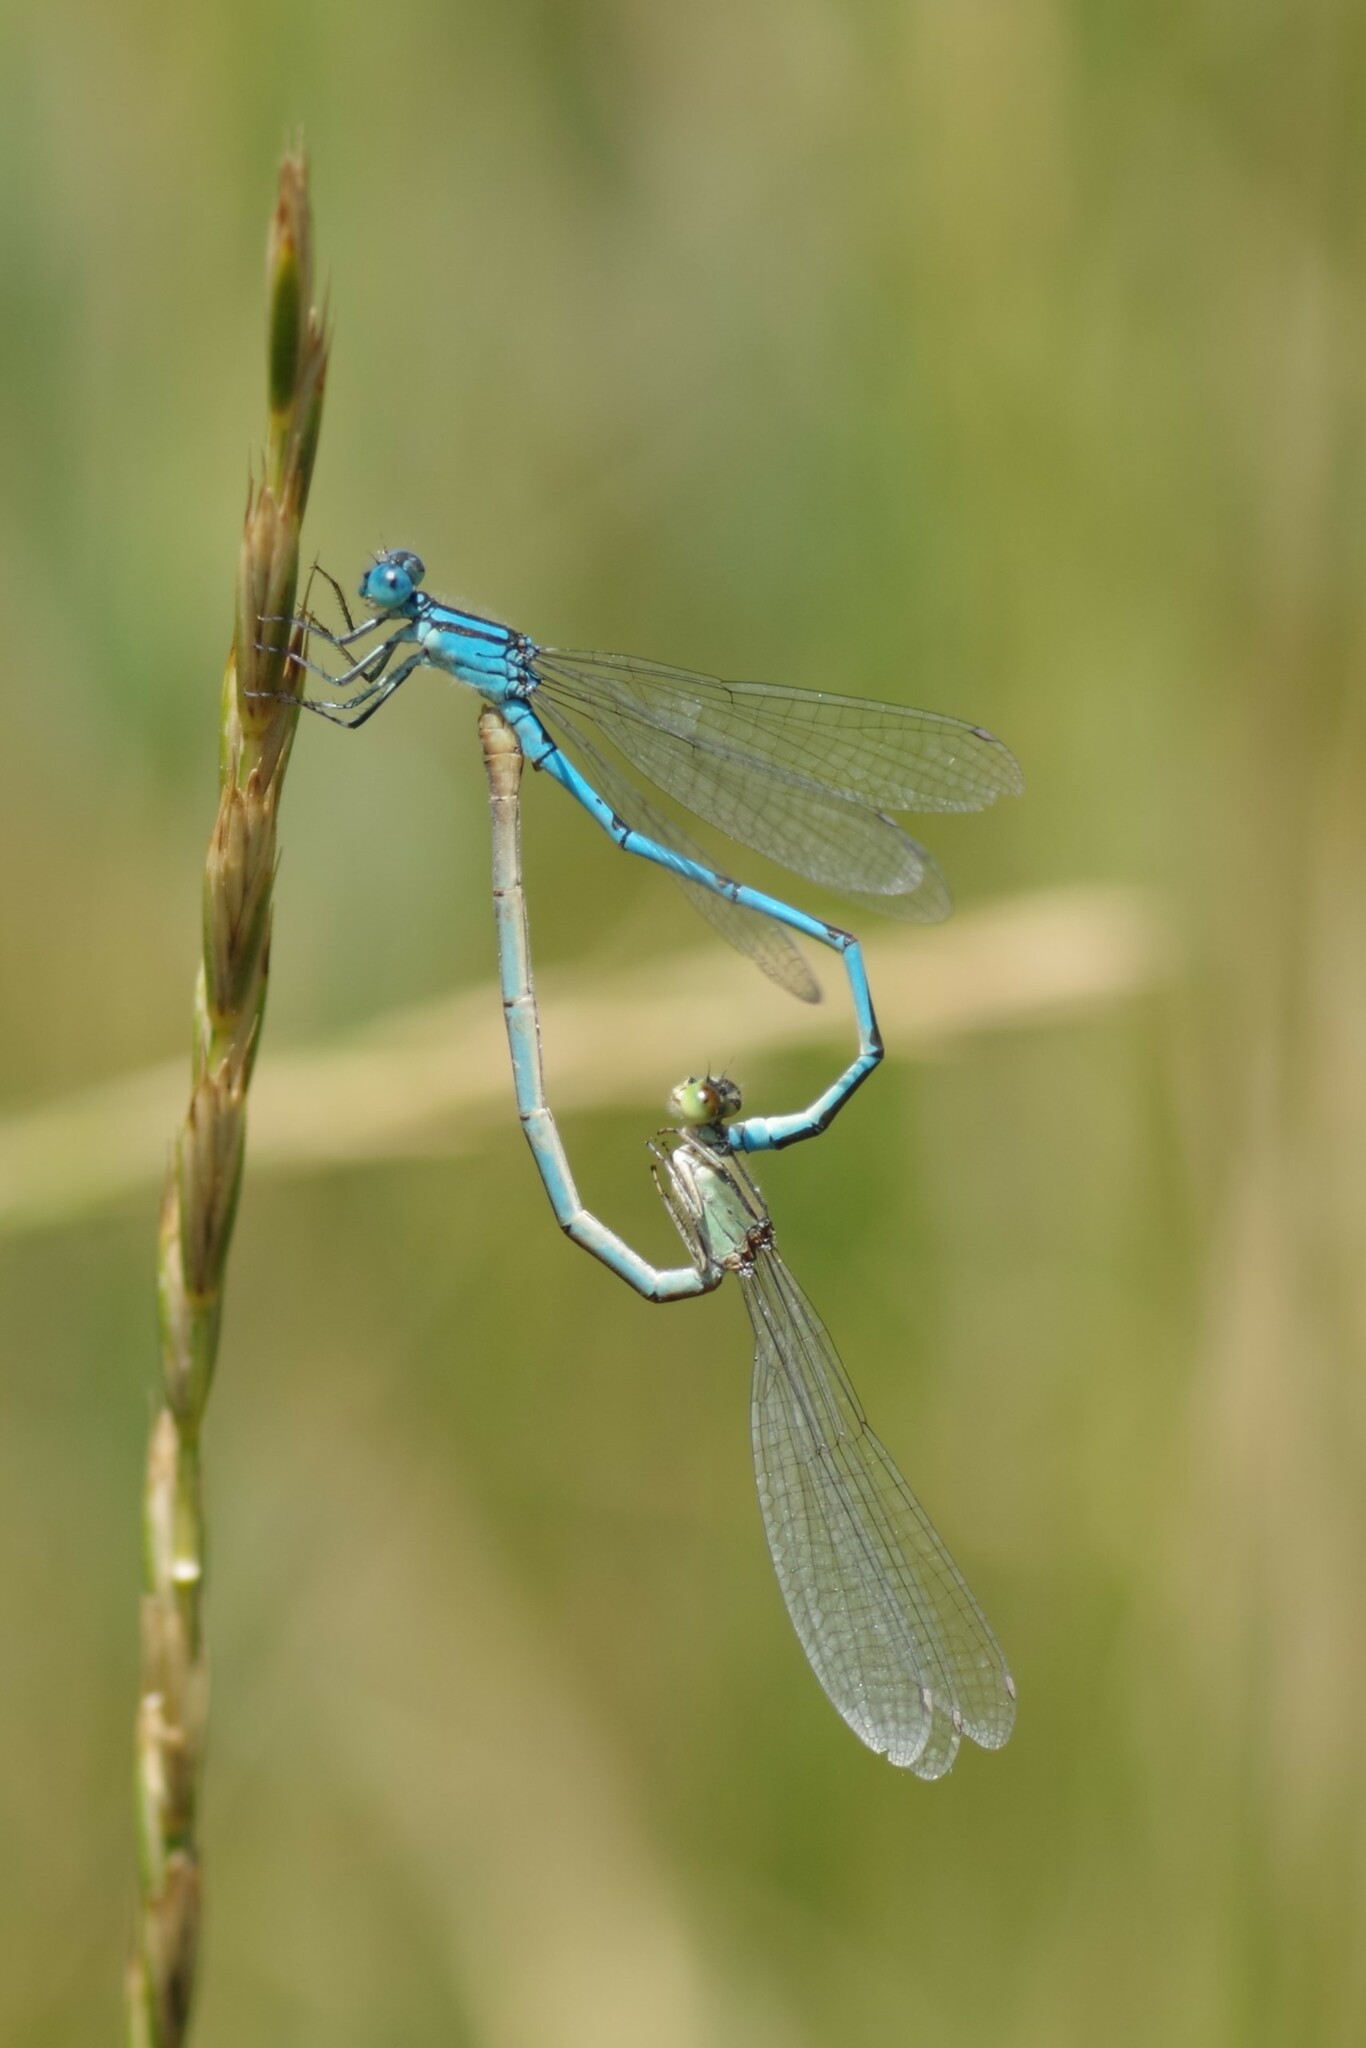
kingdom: Animalia
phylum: Arthropoda
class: Insecta
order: Odonata
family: Coenagrionidae
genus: Erythromma
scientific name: Erythromma lindenii
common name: Blue-eye
